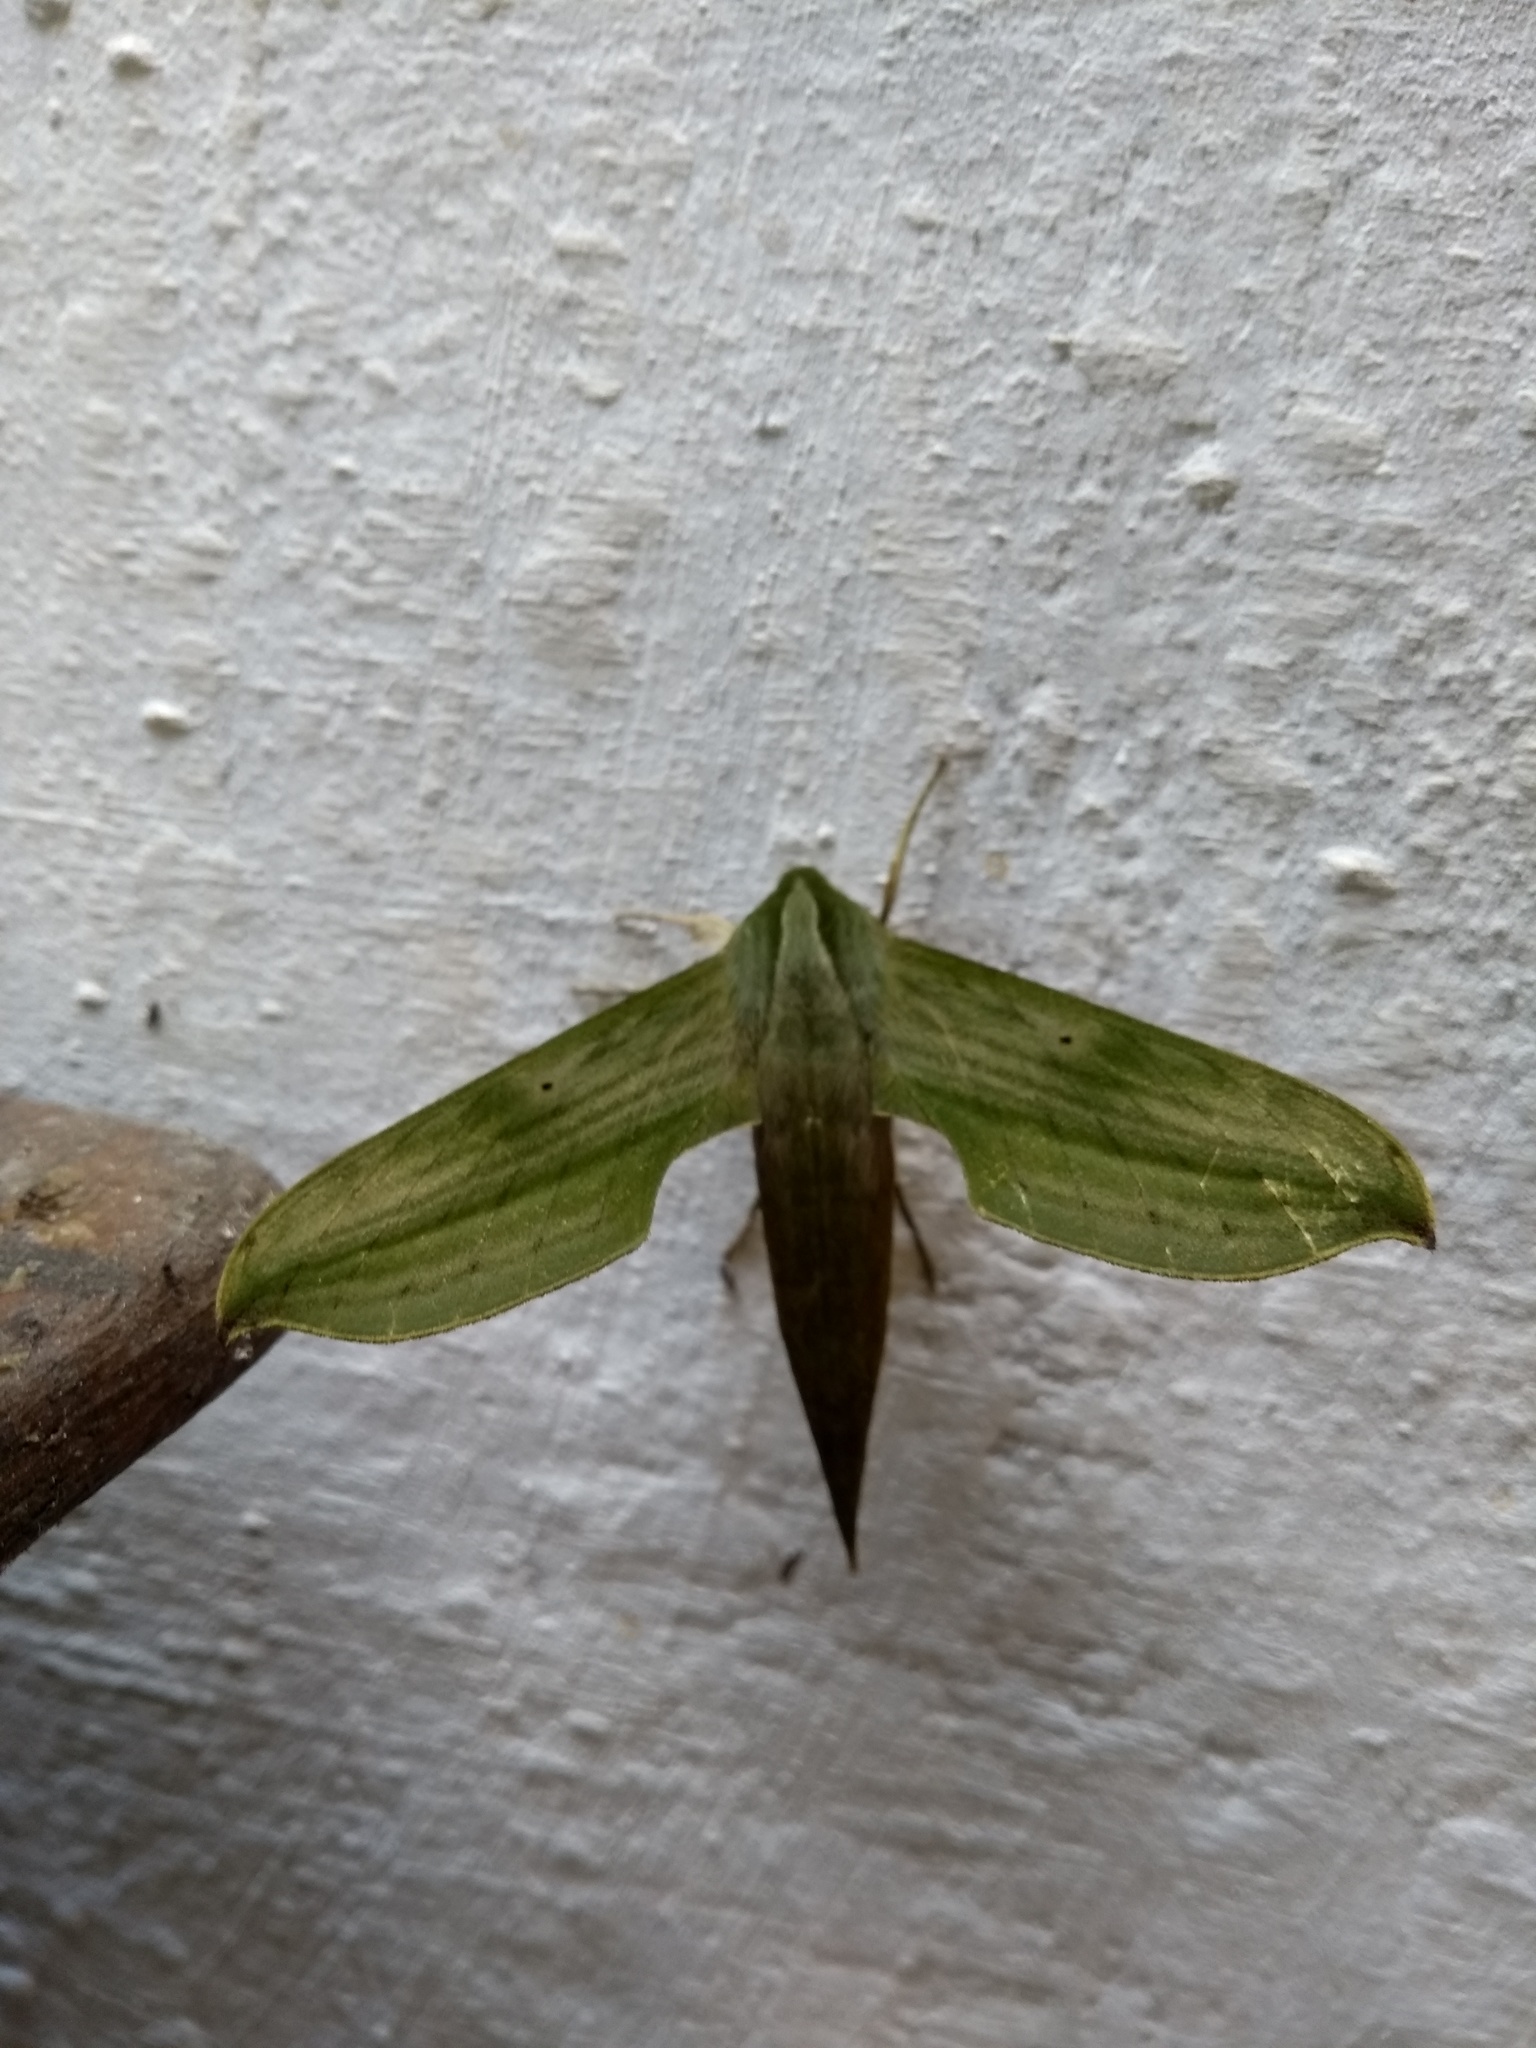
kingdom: Animalia
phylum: Arthropoda
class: Insecta
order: Lepidoptera
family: Sphingidae
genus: Xylophanes
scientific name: Xylophanes elara
